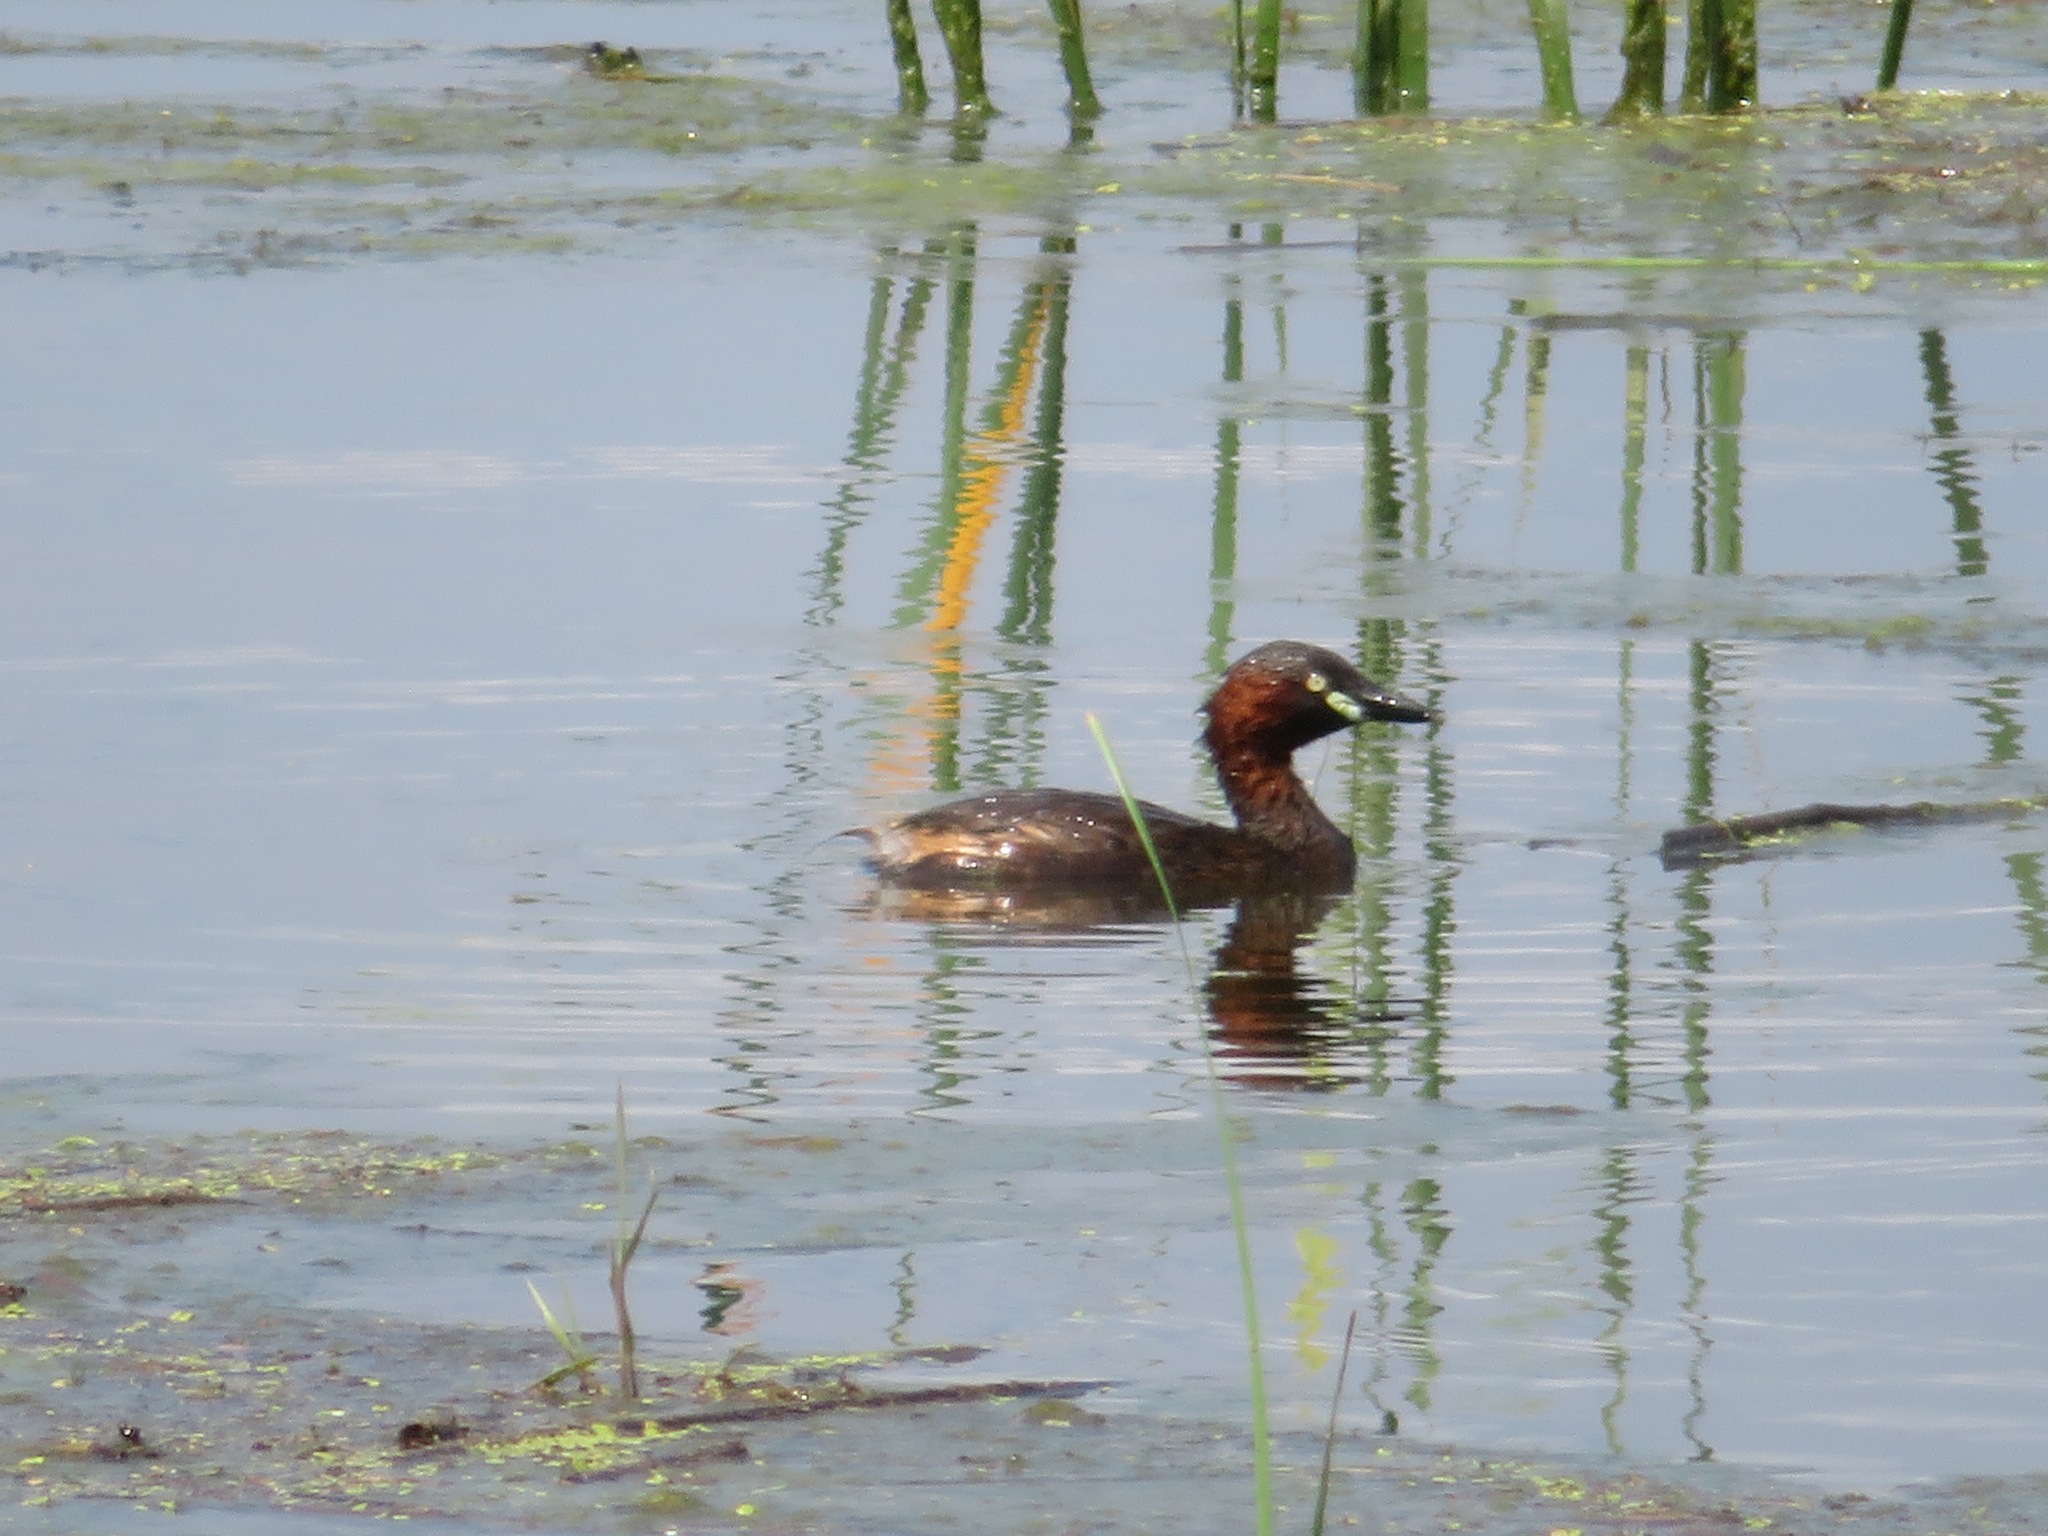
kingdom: Animalia
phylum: Chordata
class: Aves
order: Podicipediformes
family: Podicipedidae
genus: Tachybaptus
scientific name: Tachybaptus ruficollis
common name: Little grebe
